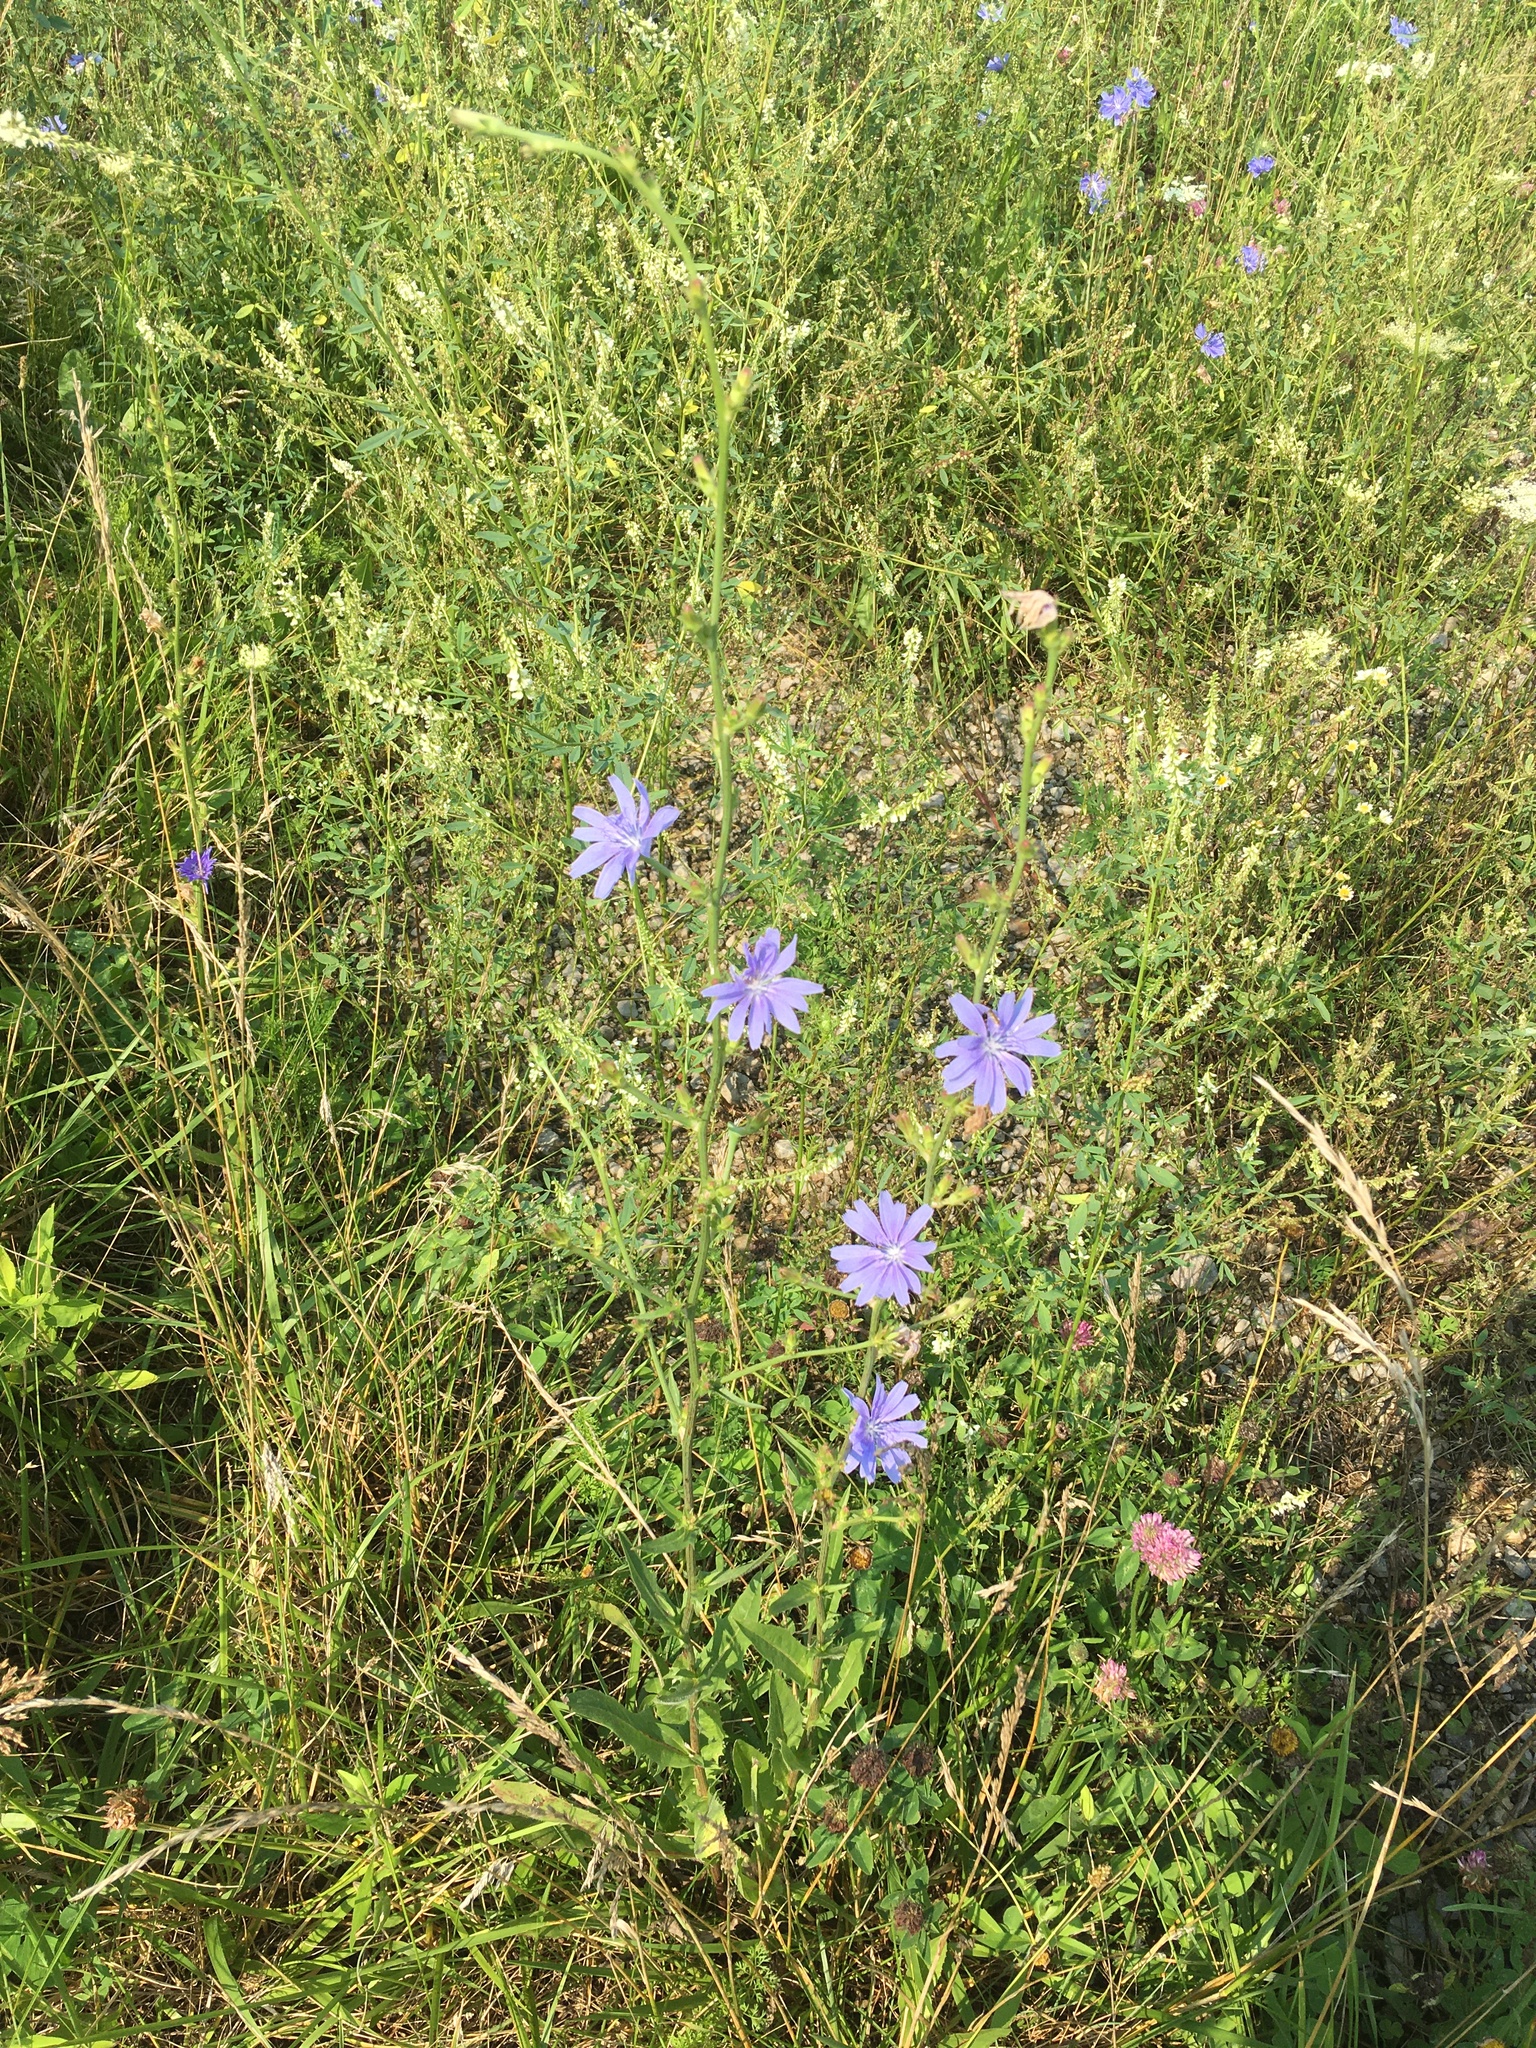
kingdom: Plantae
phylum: Tracheophyta
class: Magnoliopsida
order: Asterales
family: Asteraceae
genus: Cichorium
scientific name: Cichorium intybus
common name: Chicory
